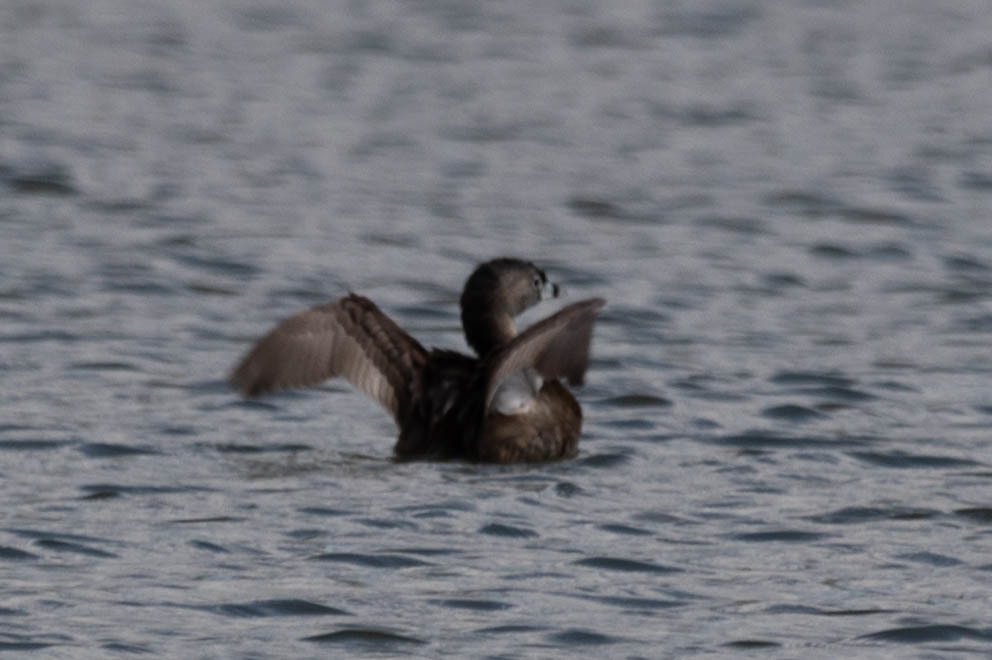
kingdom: Animalia
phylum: Chordata
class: Aves
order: Podicipediformes
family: Podicipedidae
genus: Podilymbus
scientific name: Podilymbus podiceps
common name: Pied-billed grebe
